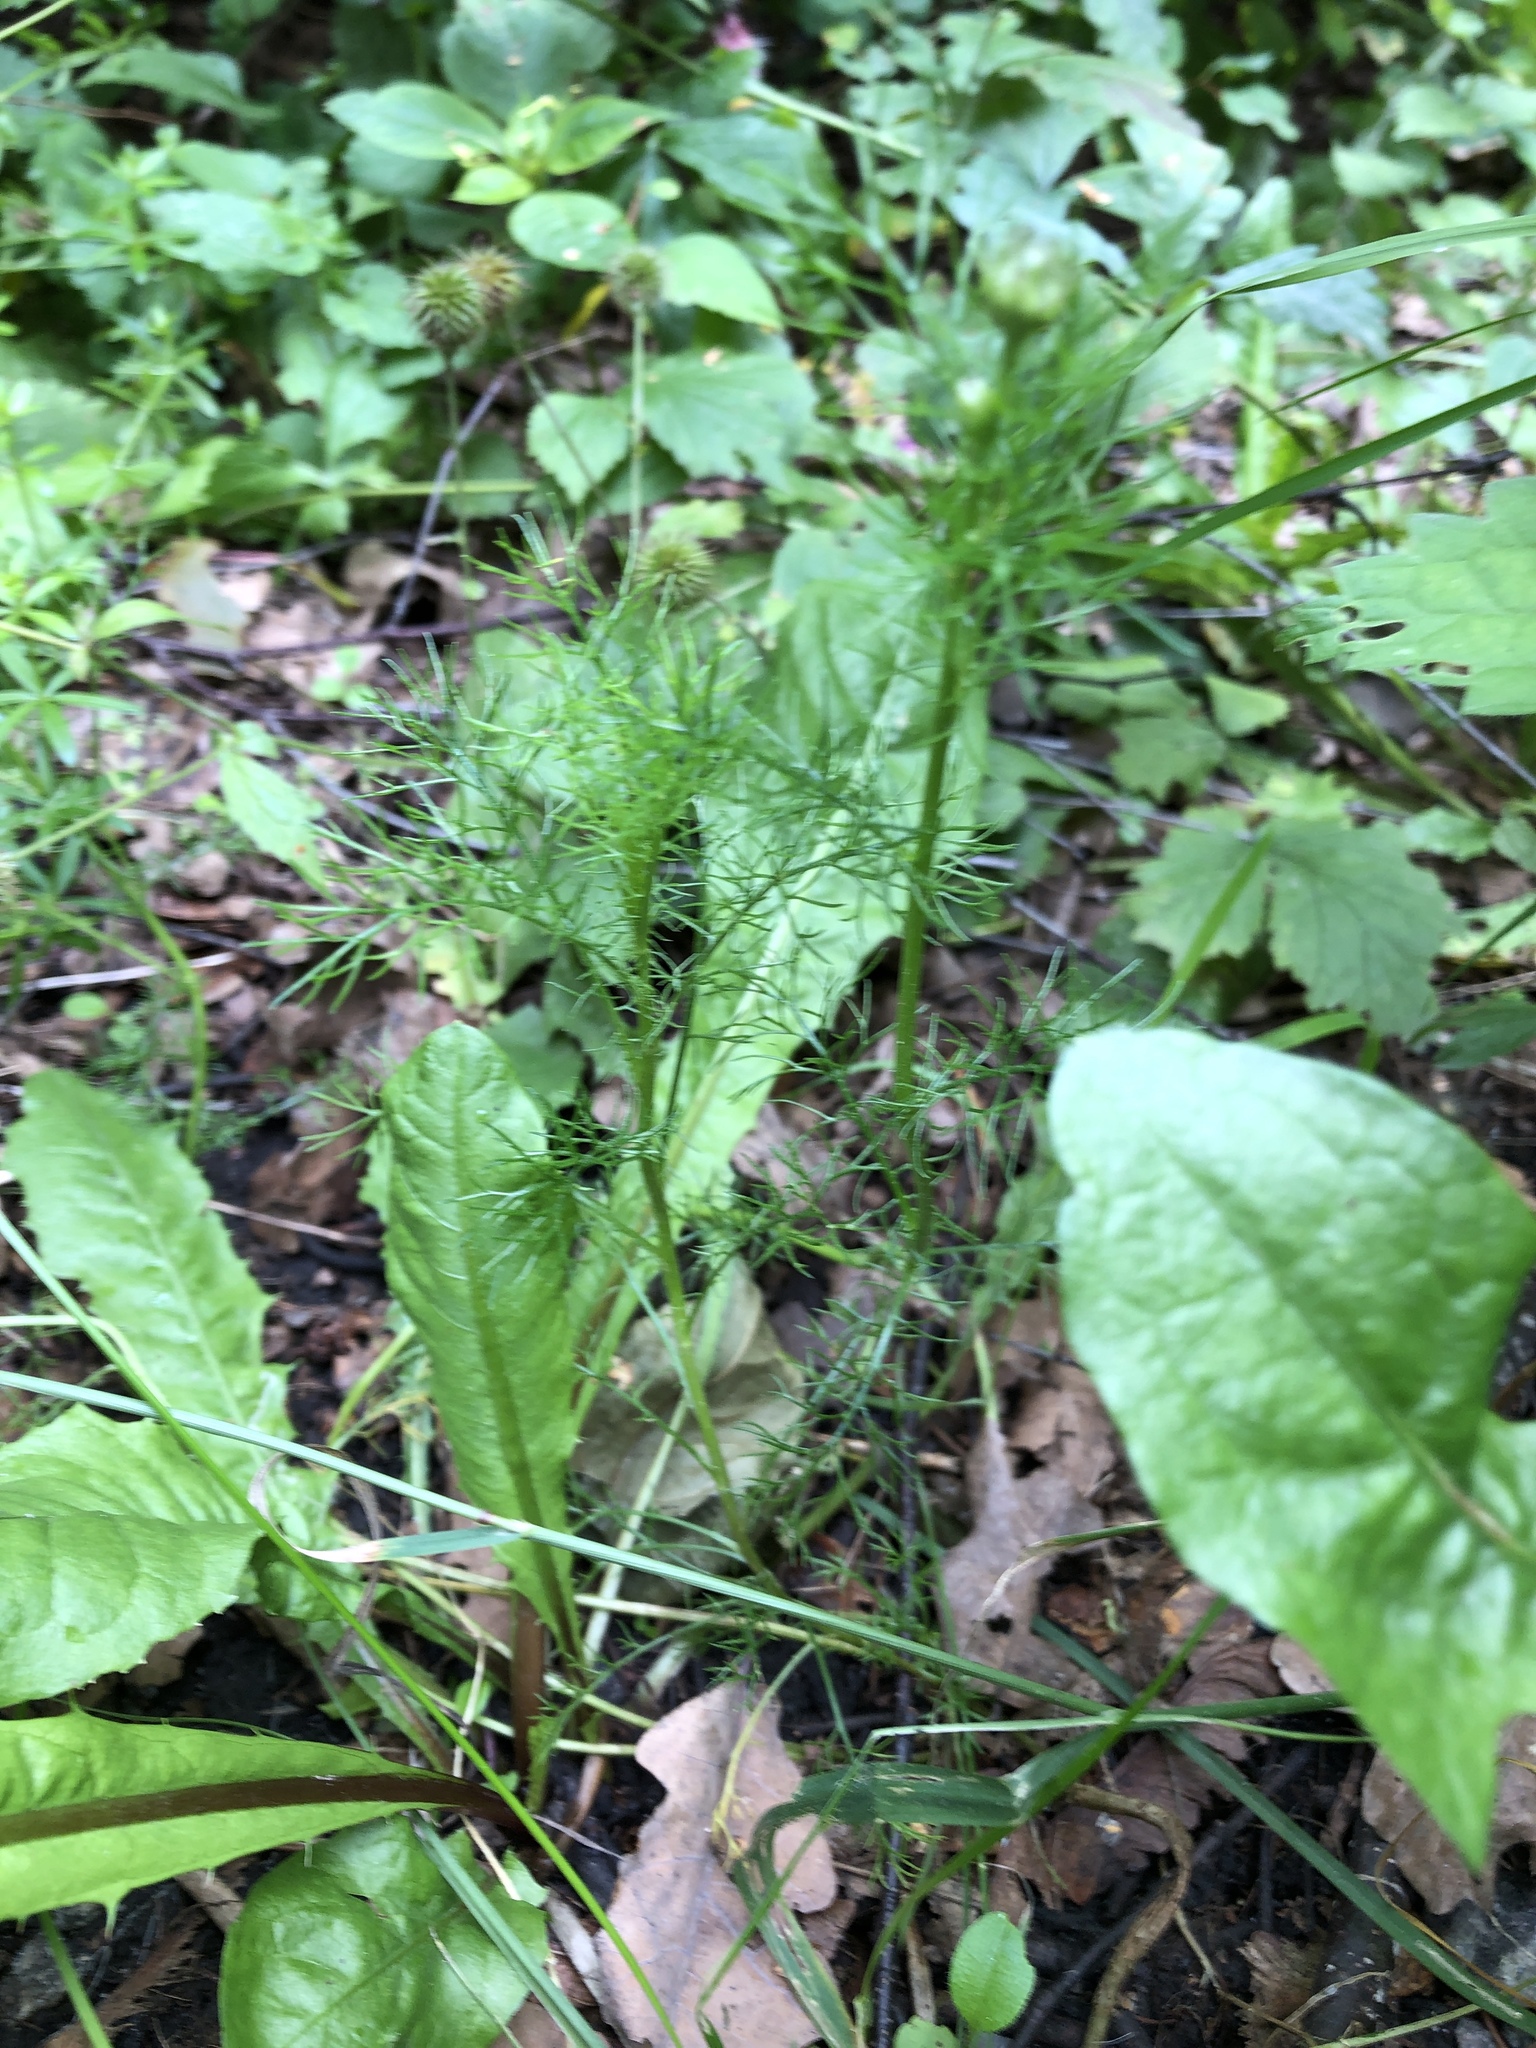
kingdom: Plantae
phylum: Tracheophyta
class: Magnoliopsida
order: Asterales
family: Asteraceae
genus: Tripleurospermum
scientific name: Tripleurospermum inodorum
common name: Scentless mayweed
